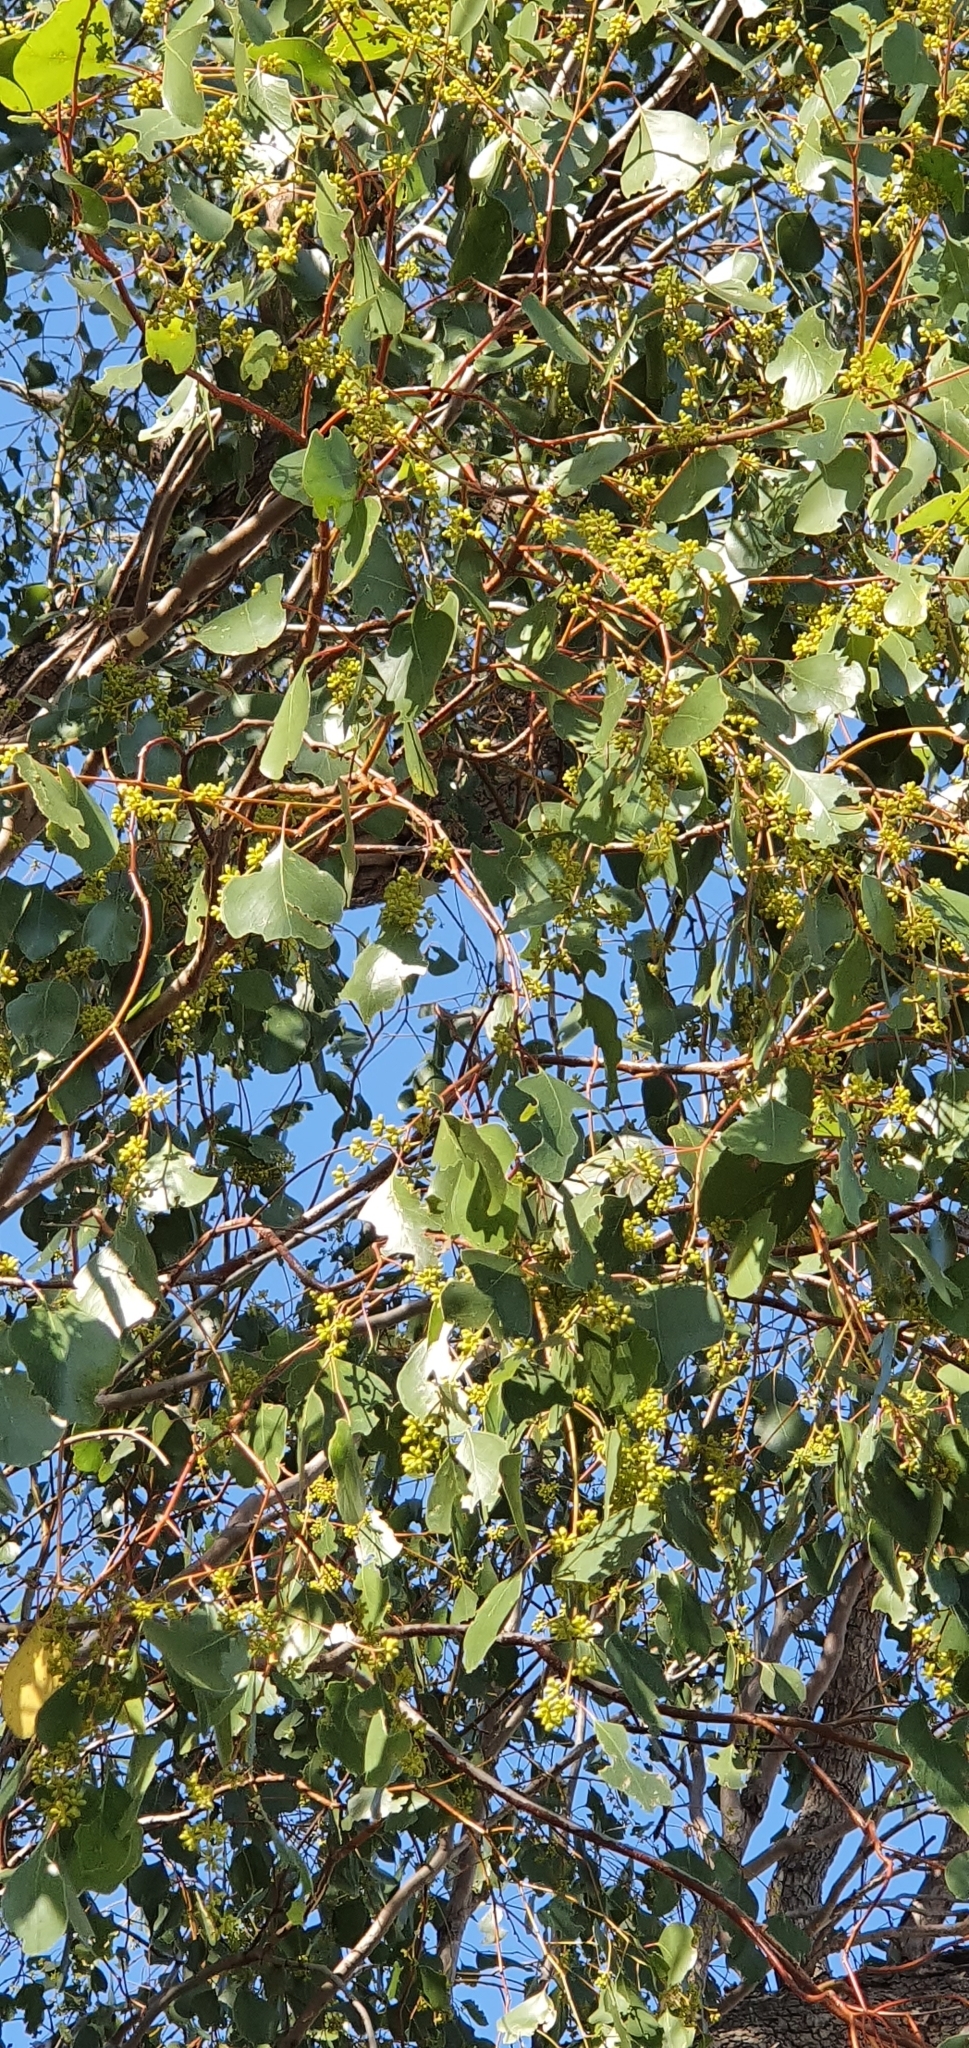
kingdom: Plantae
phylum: Tracheophyta
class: Magnoliopsida
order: Myrtales
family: Myrtaceae
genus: Eucalyptus
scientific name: Eucalyptus populnea
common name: Bimble box
